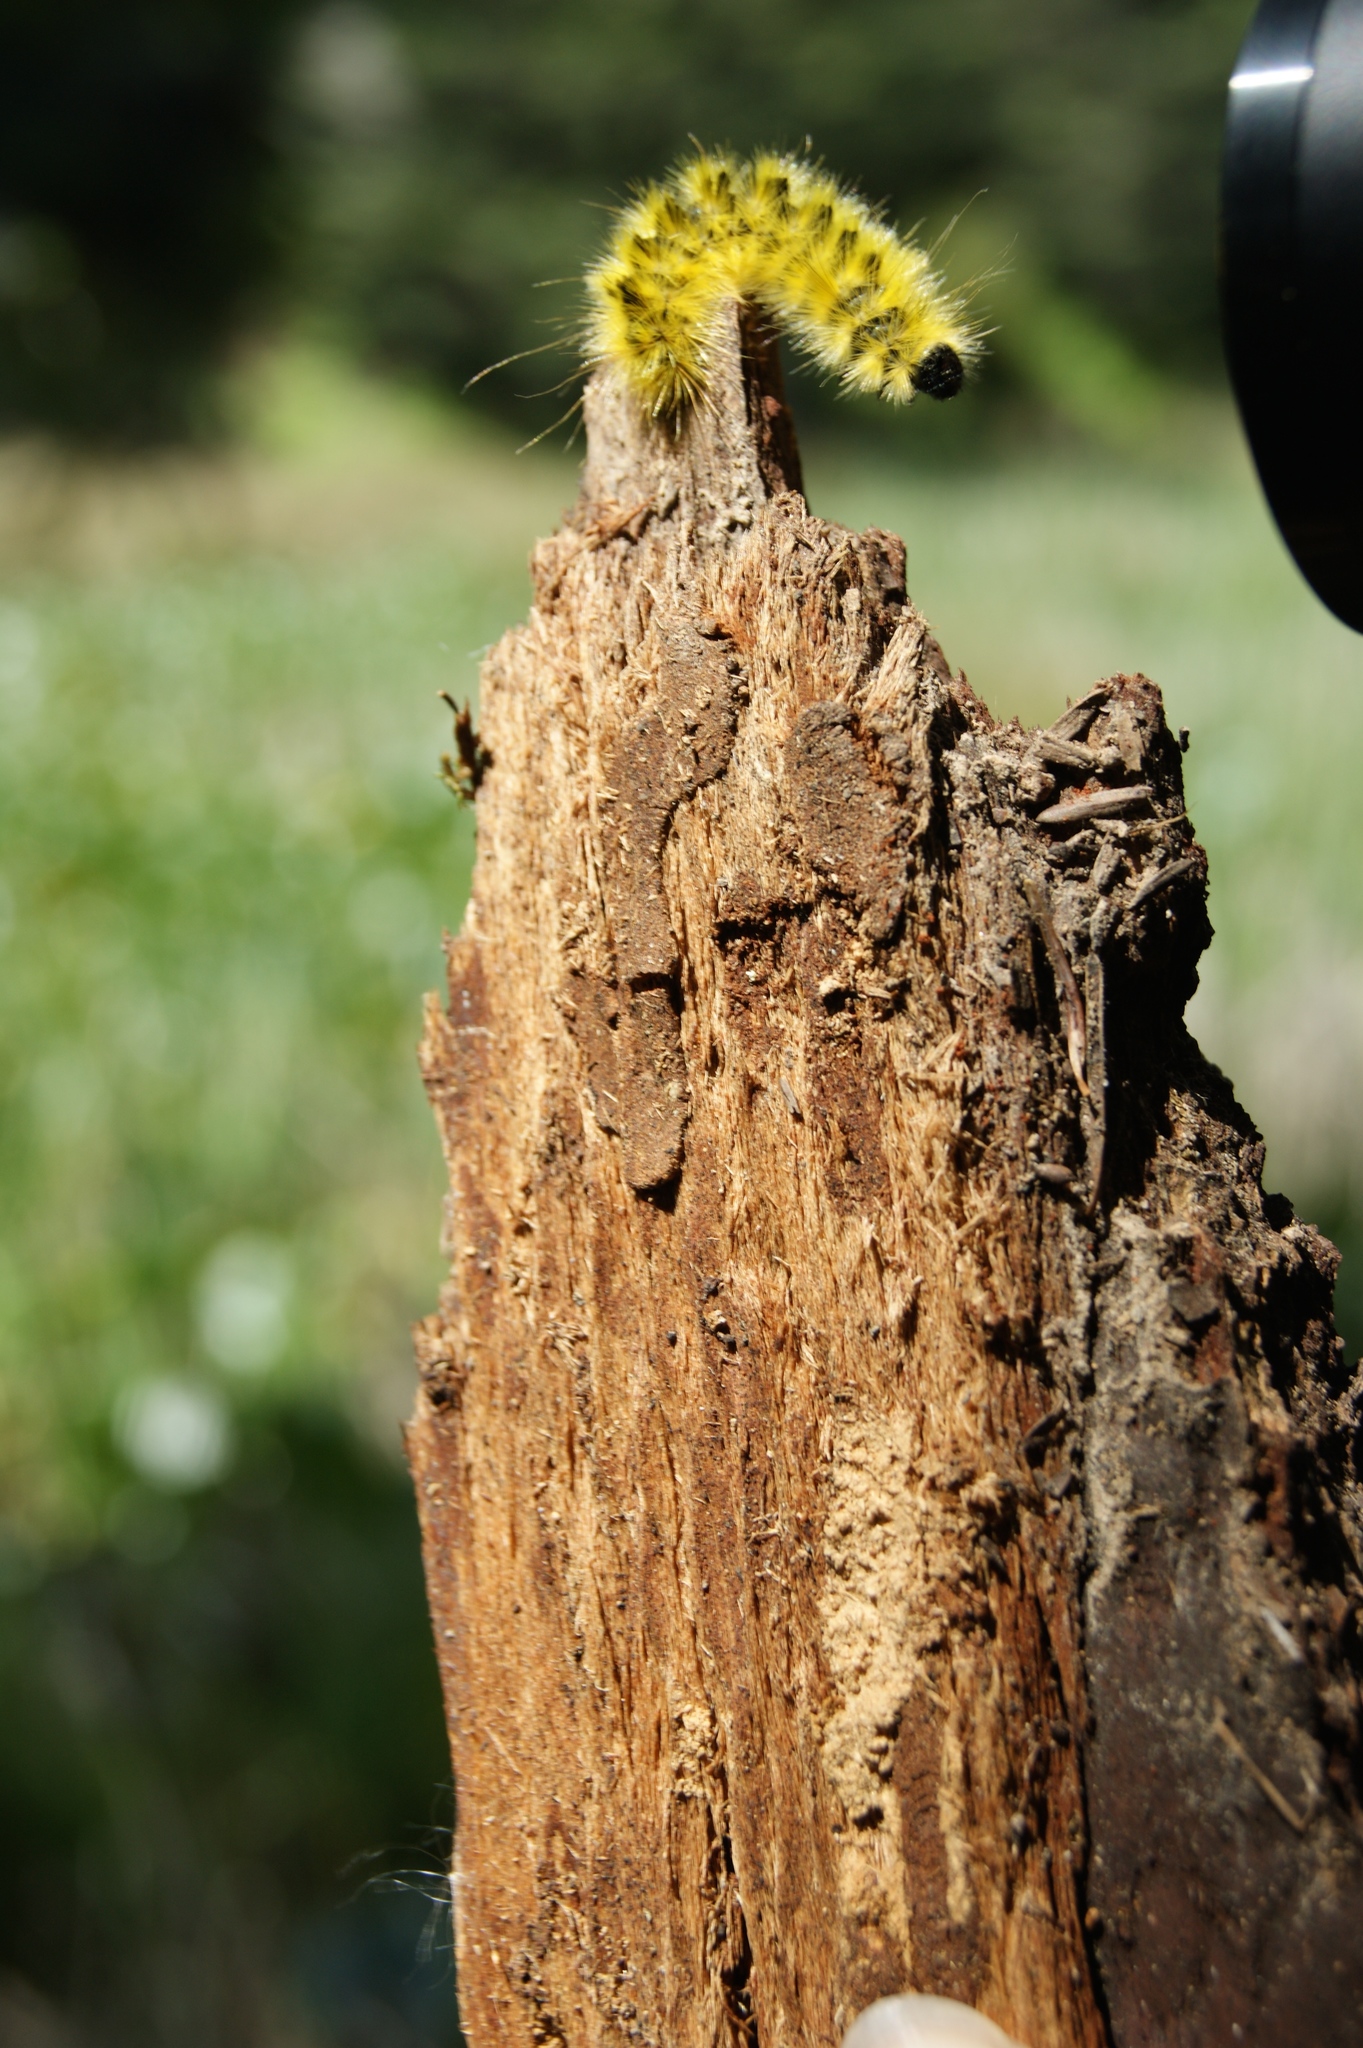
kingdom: Animalia
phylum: Arthropoda
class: Insecta
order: Lepidoptera
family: Erebidae
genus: Lophocampa
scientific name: Lophocampa argentata
